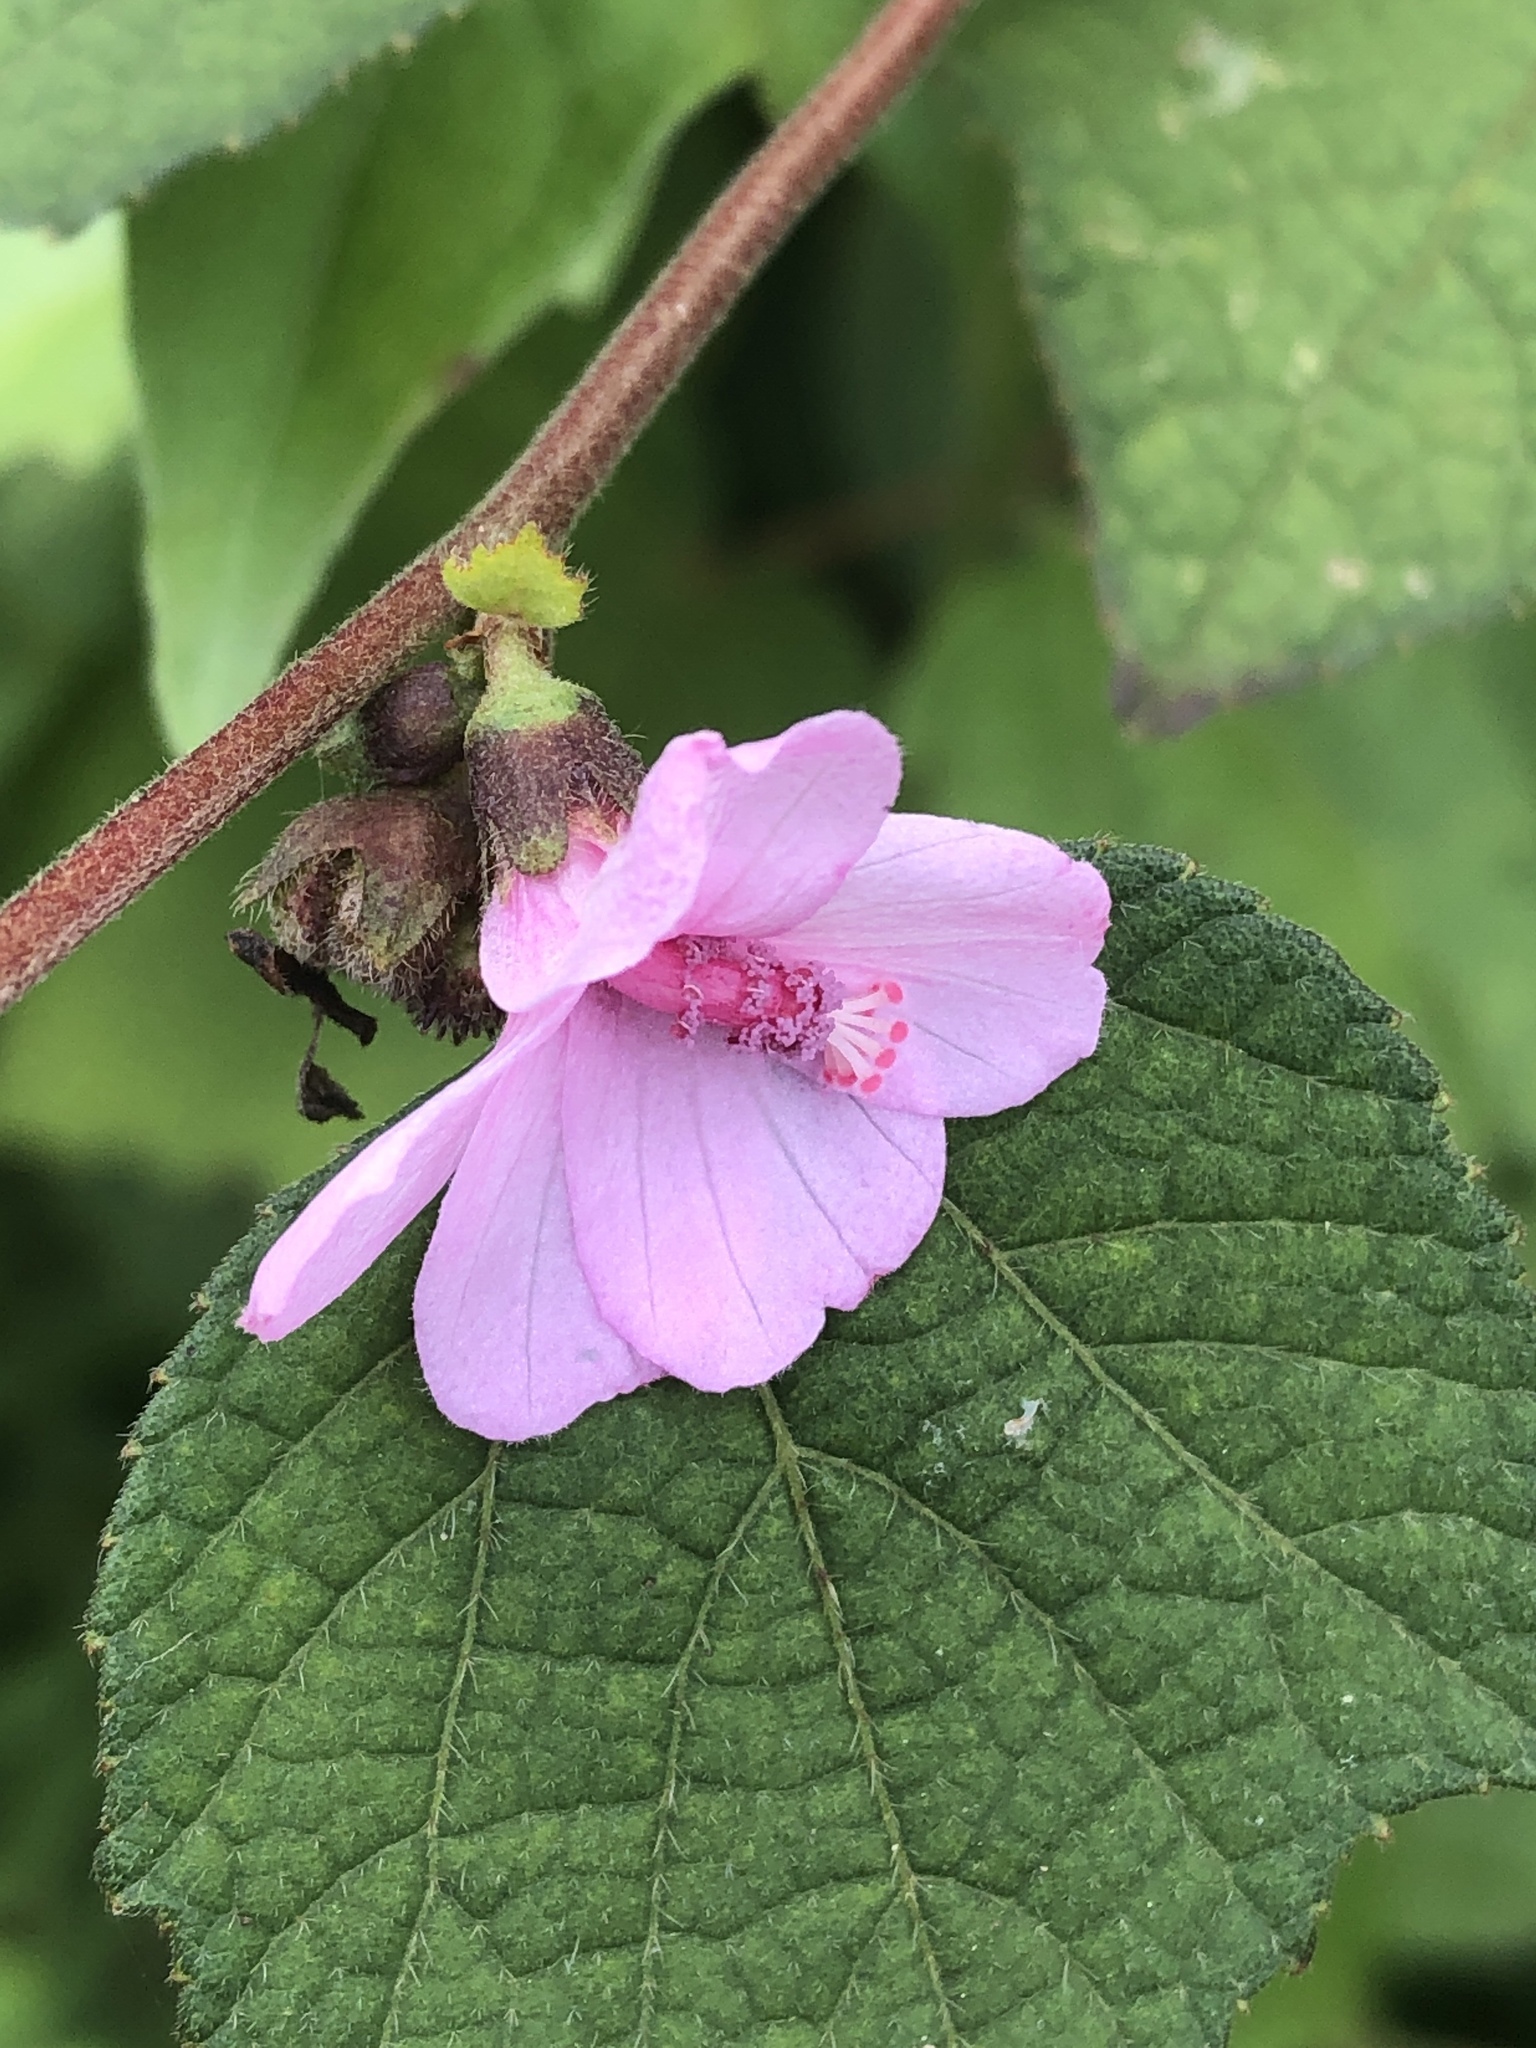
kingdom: Plantae
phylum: Tracheophyta
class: Magnoliopsida
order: Malvales
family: Malvaceae
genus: Urena
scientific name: Urena lobata
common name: Caesarweed
